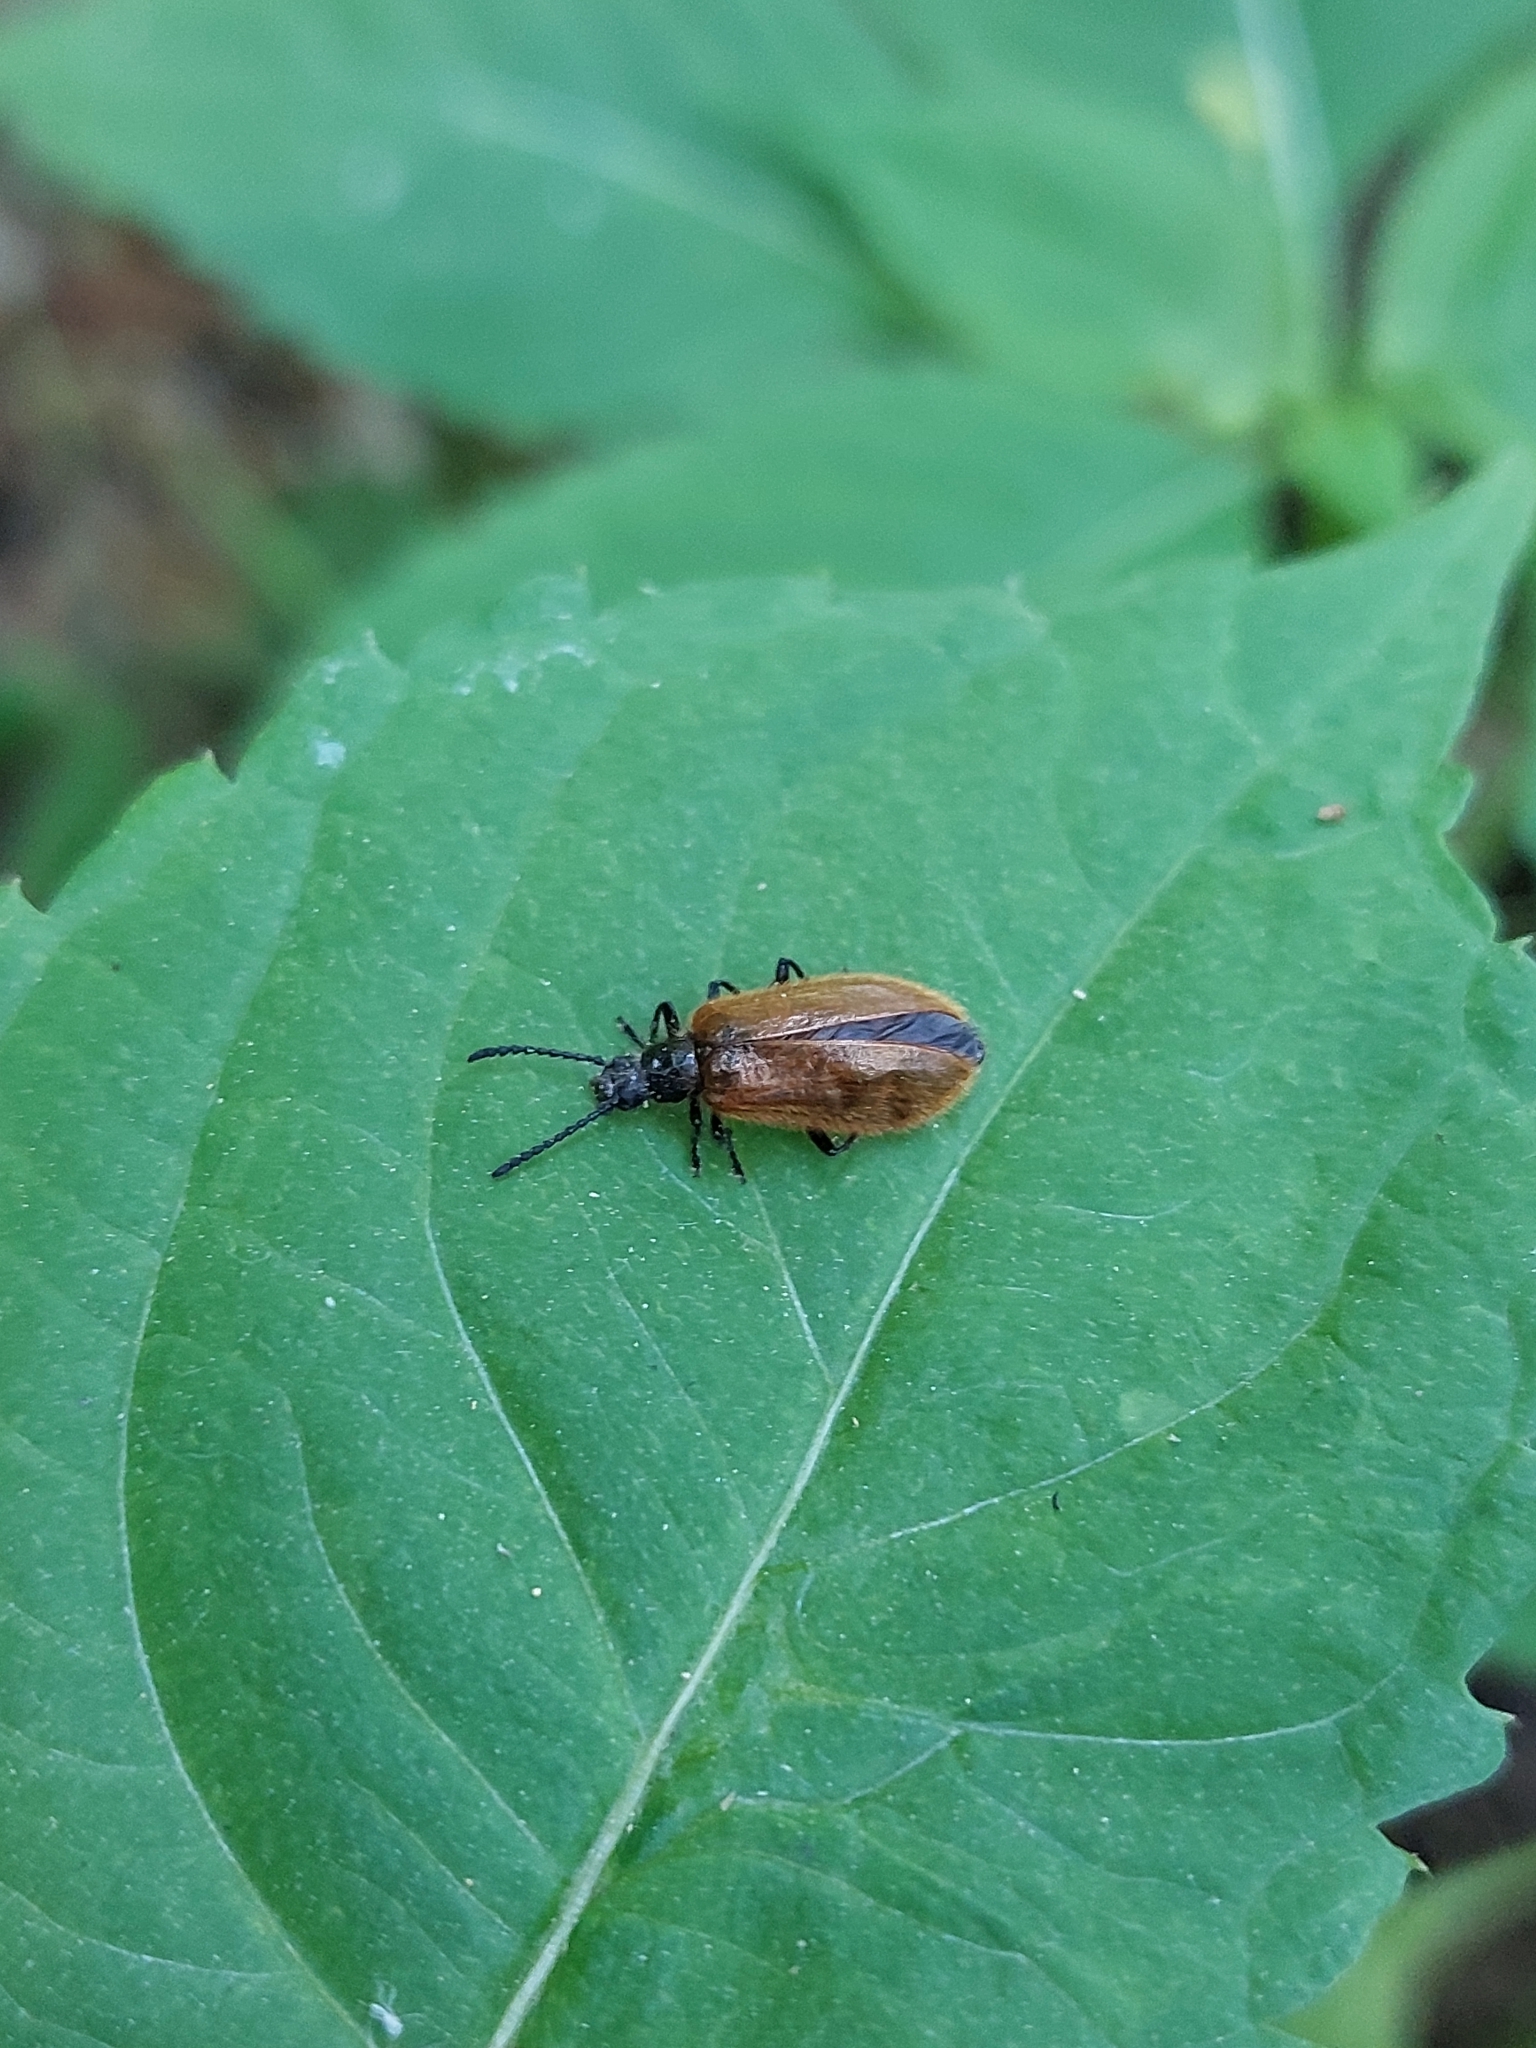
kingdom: Animalia
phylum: Arthropoda
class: Insecta
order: Coleoptera
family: Tenebrionidae
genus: Lagria
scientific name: Lagria hirta
